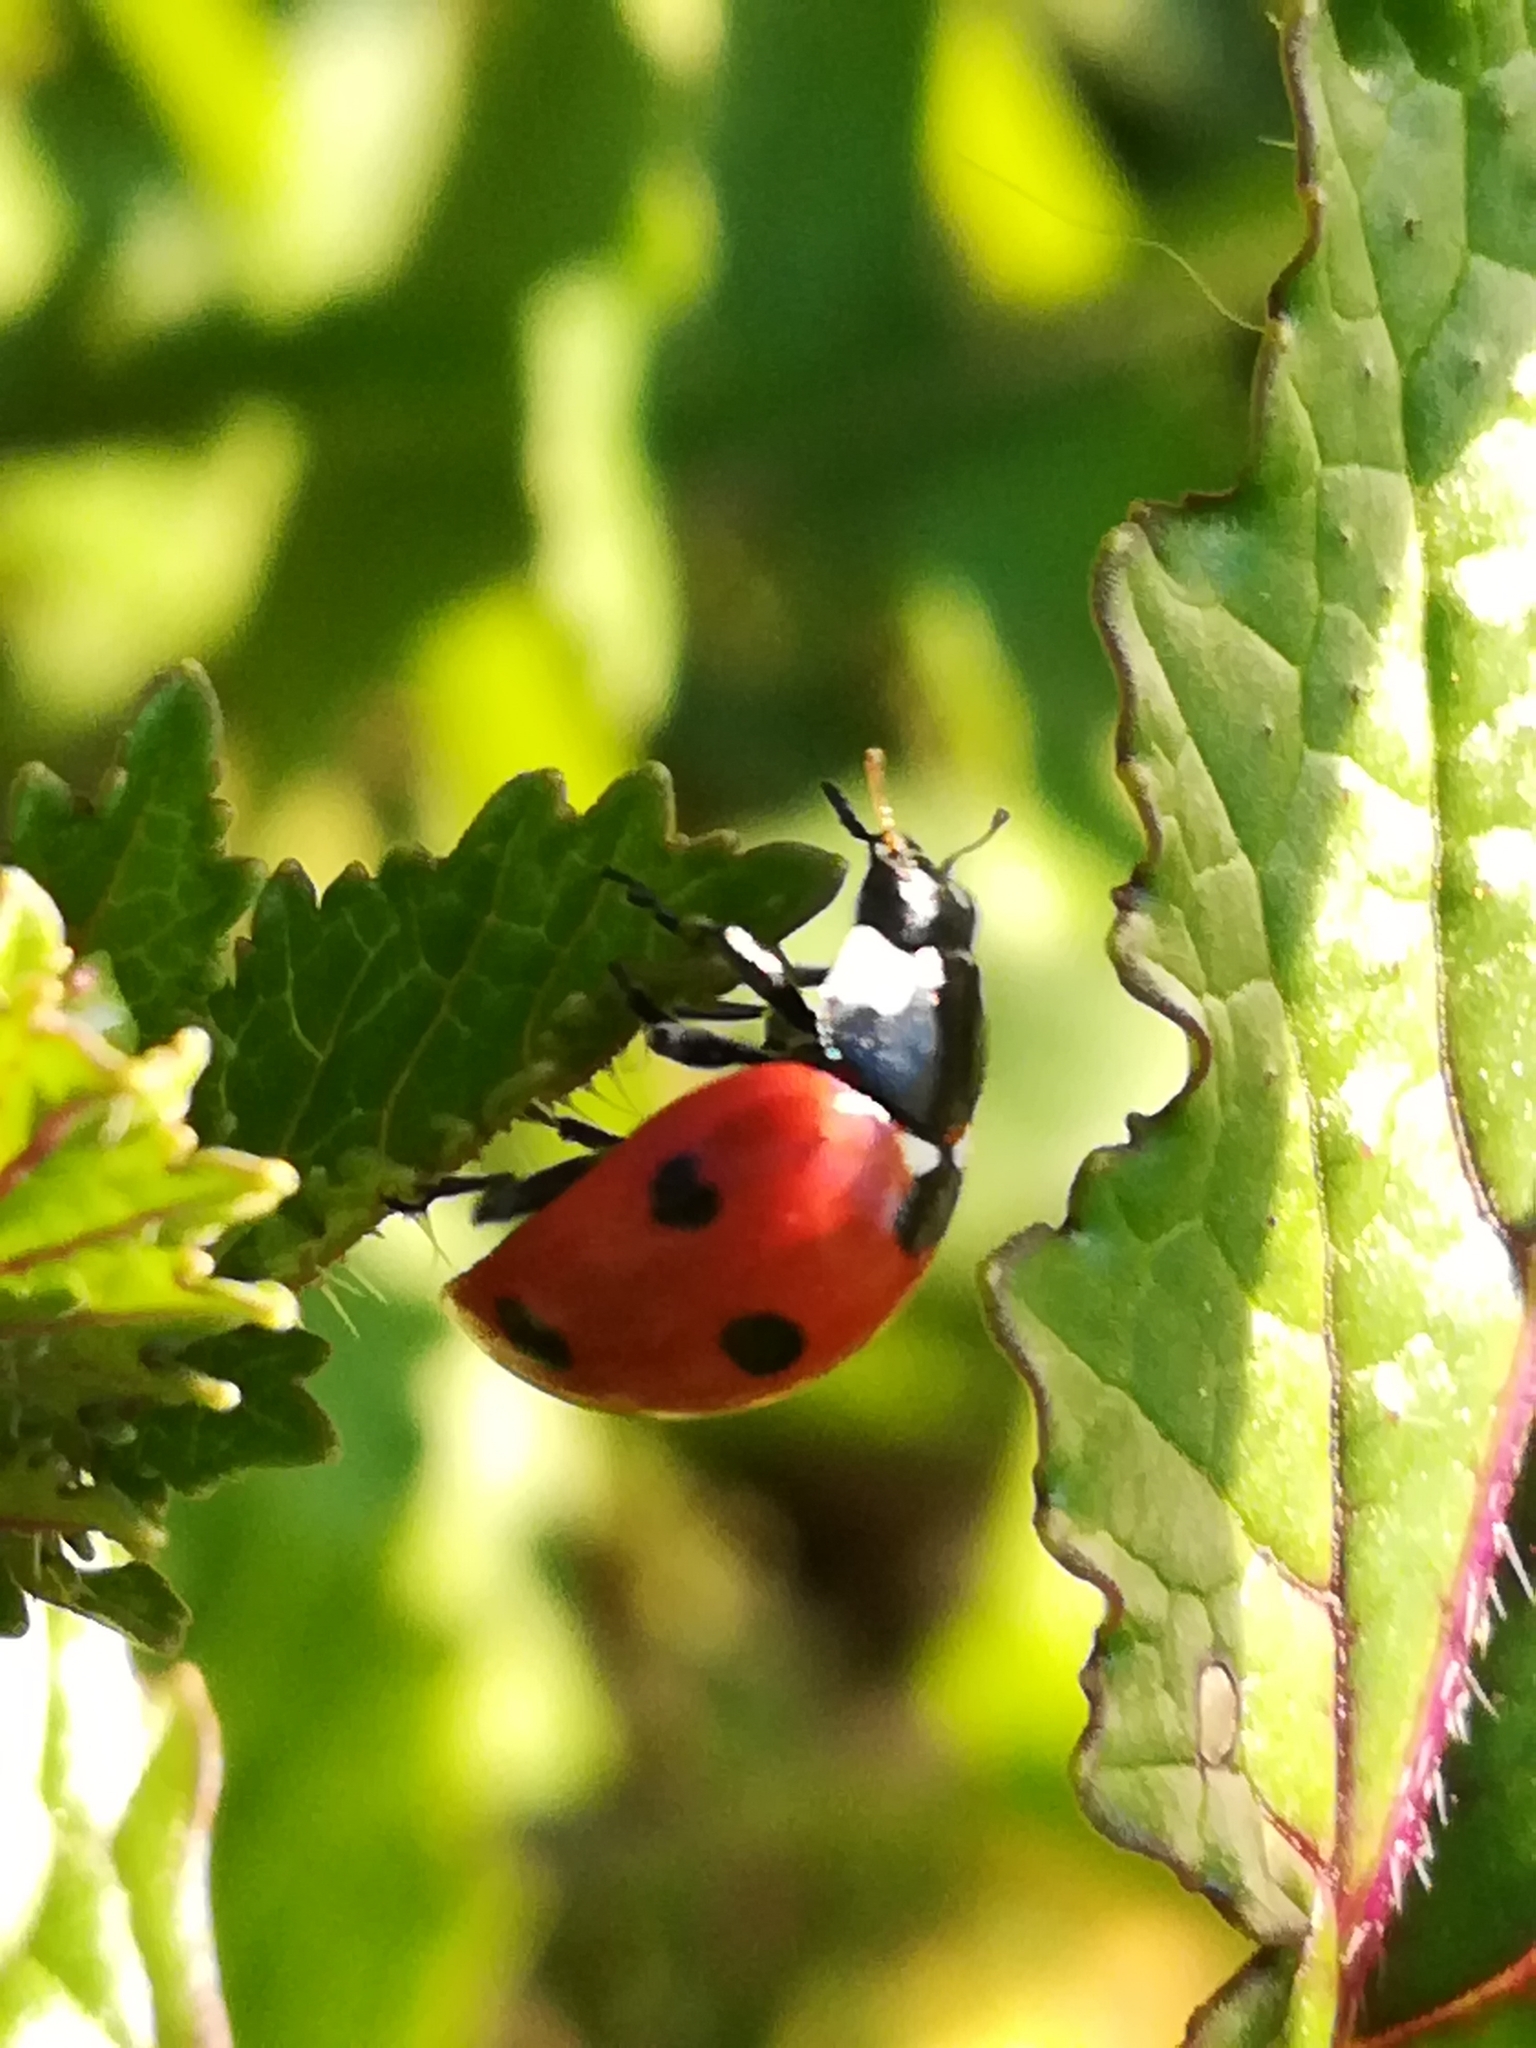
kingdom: Animalia
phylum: Arthropoda
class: Insecta
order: Coleoptera
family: Coccinellidae
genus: Coccinella
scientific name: Coccinella septempunctata
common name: Sevenspotted lady beetle
